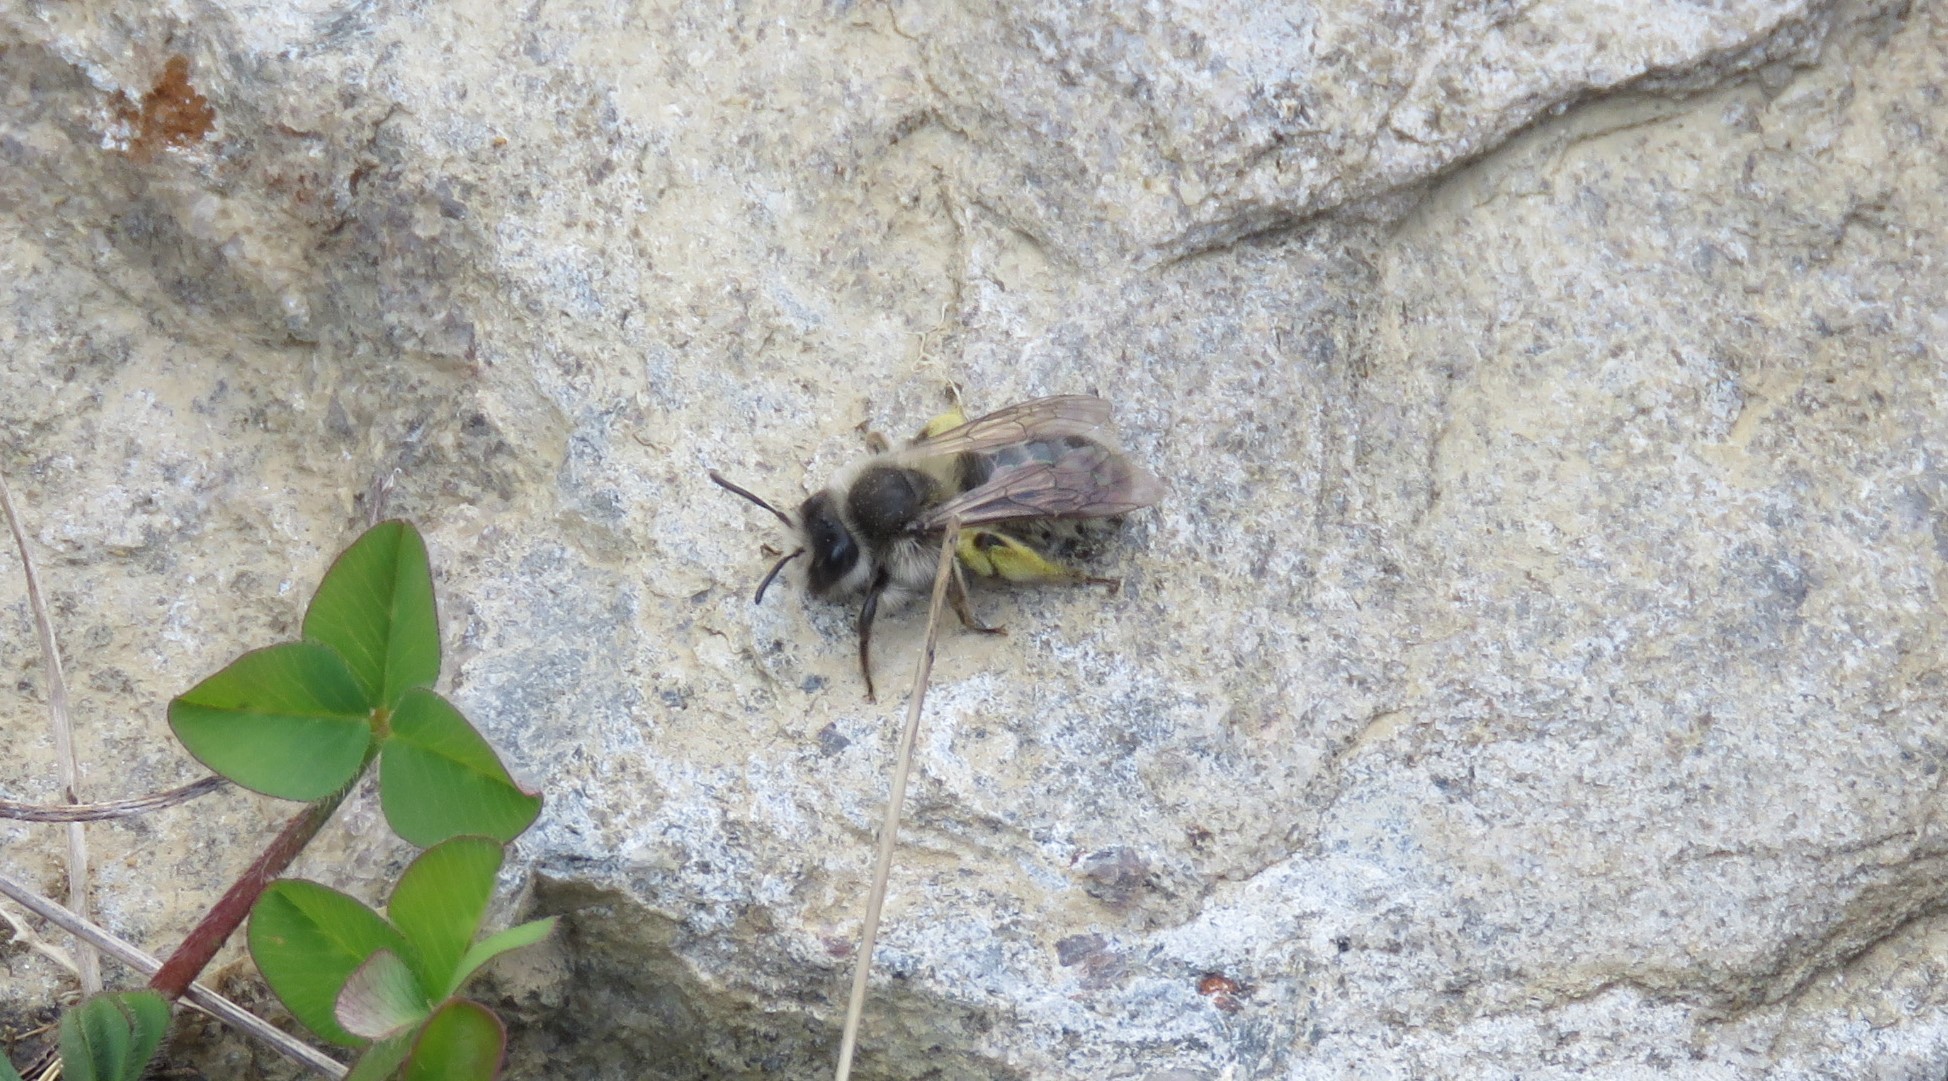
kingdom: Animalia
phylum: Arthropoda
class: Insecta
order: Hymenoptera
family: Andrenidae
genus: Andrena
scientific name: Andrena frigida
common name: Frigid mining bee
